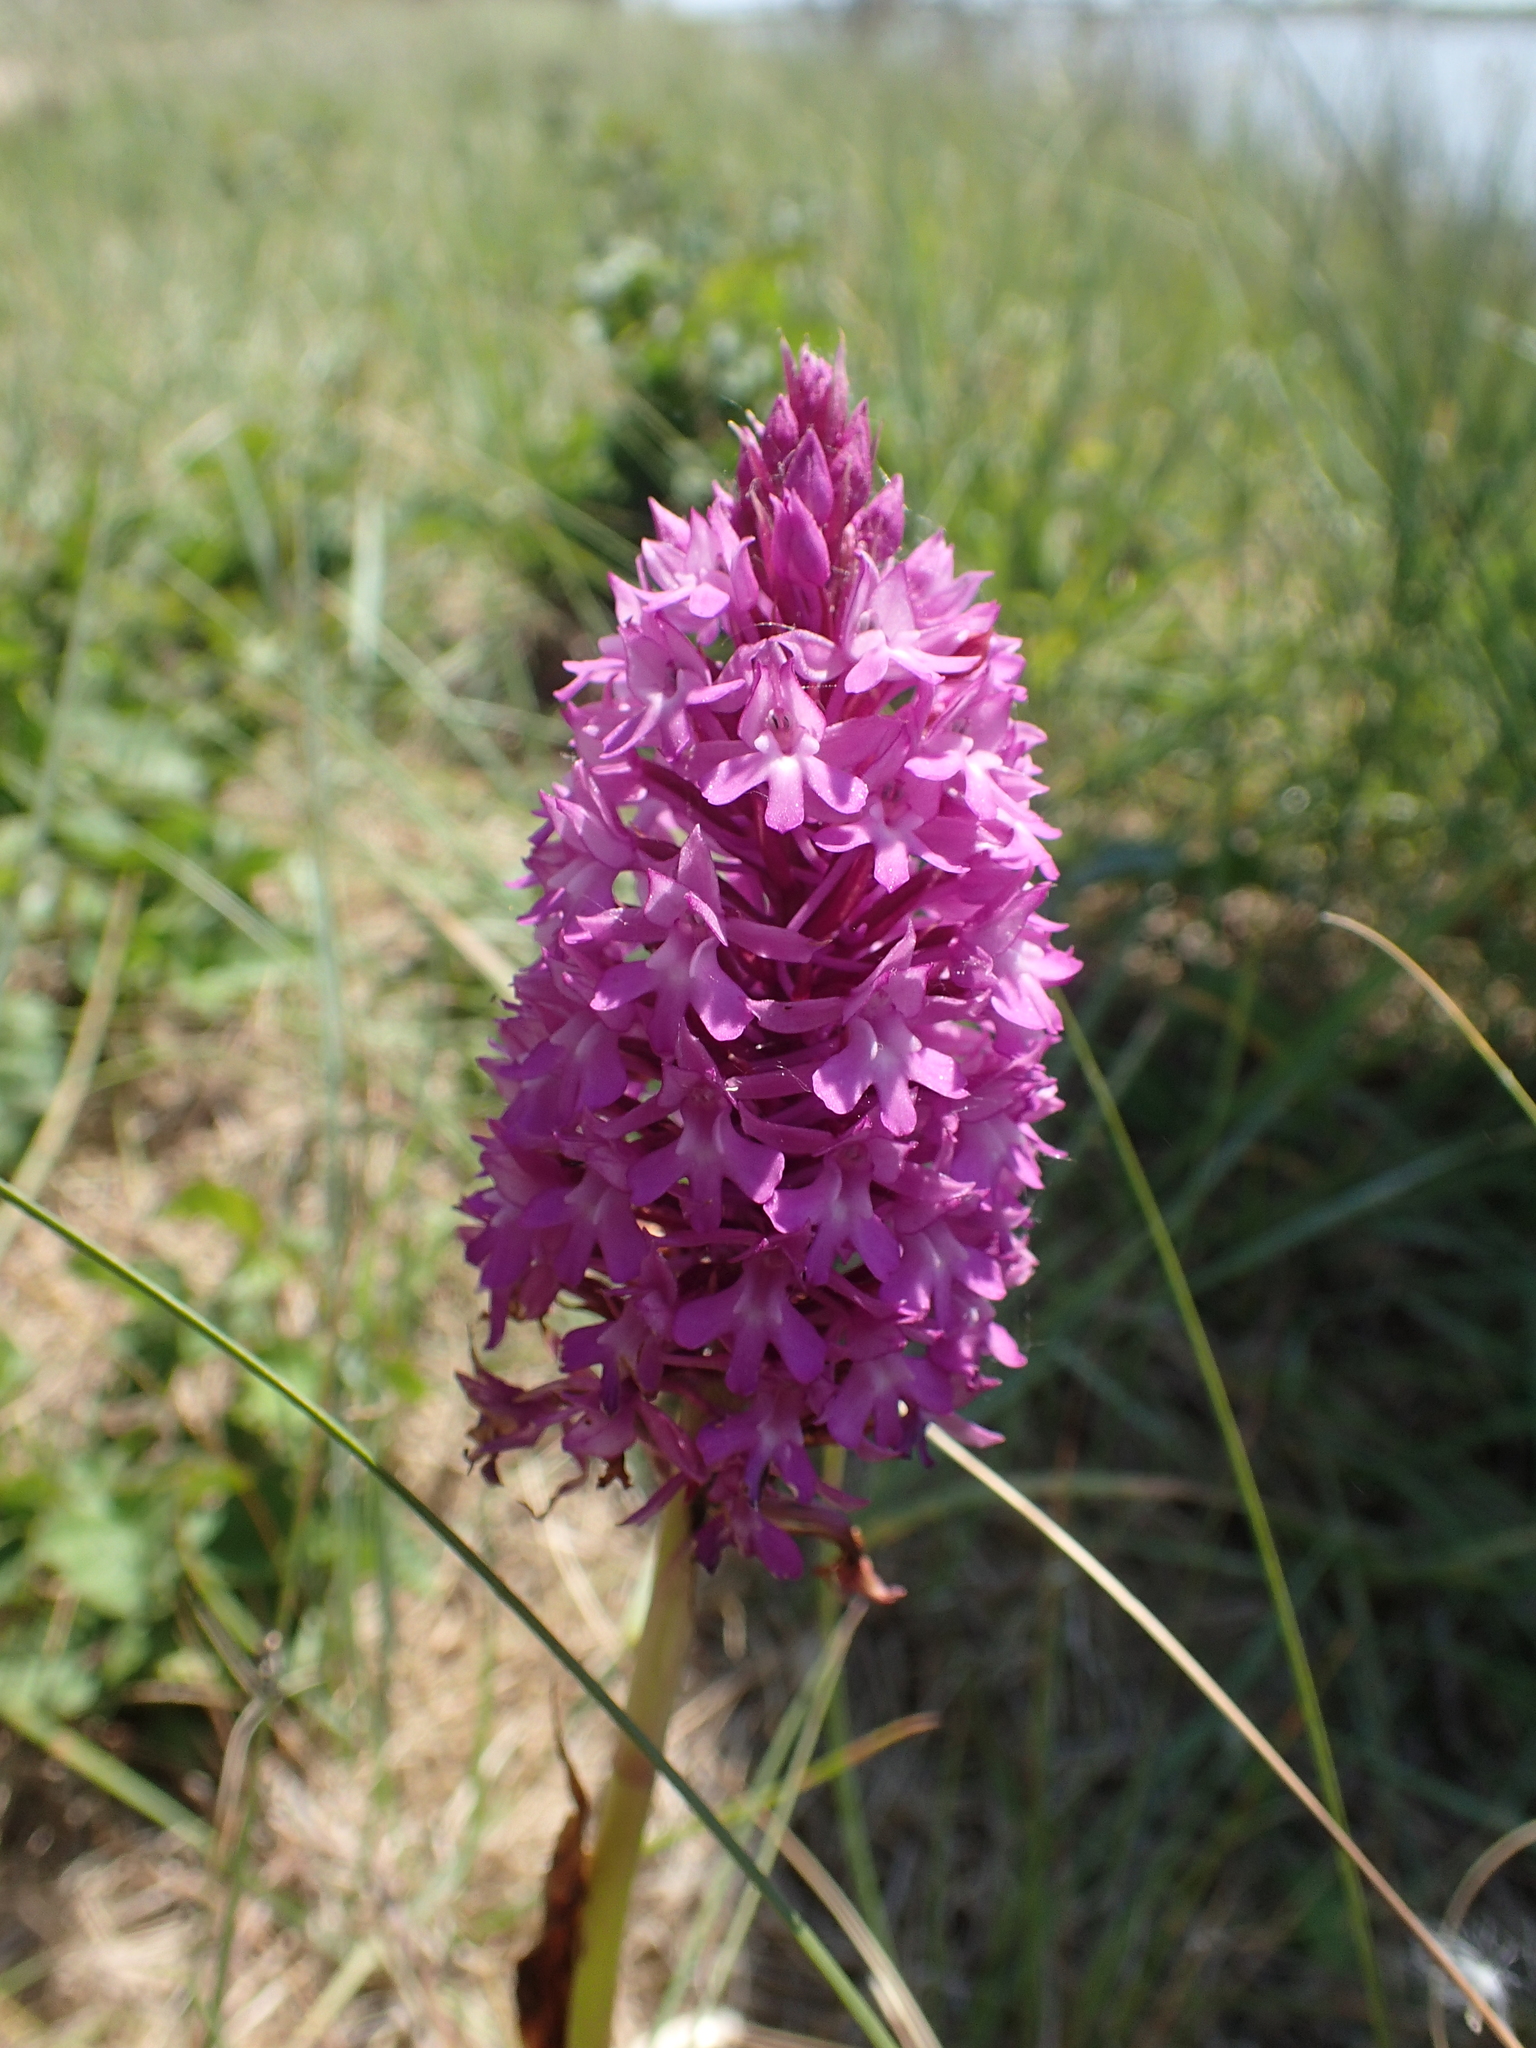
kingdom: Plantae
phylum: Tracheophyta
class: Liliopsida
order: Asparagales
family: Orchidaceae
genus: Anacamptis
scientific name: Anacamptis pyramidalis
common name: Pyramidal orchid
